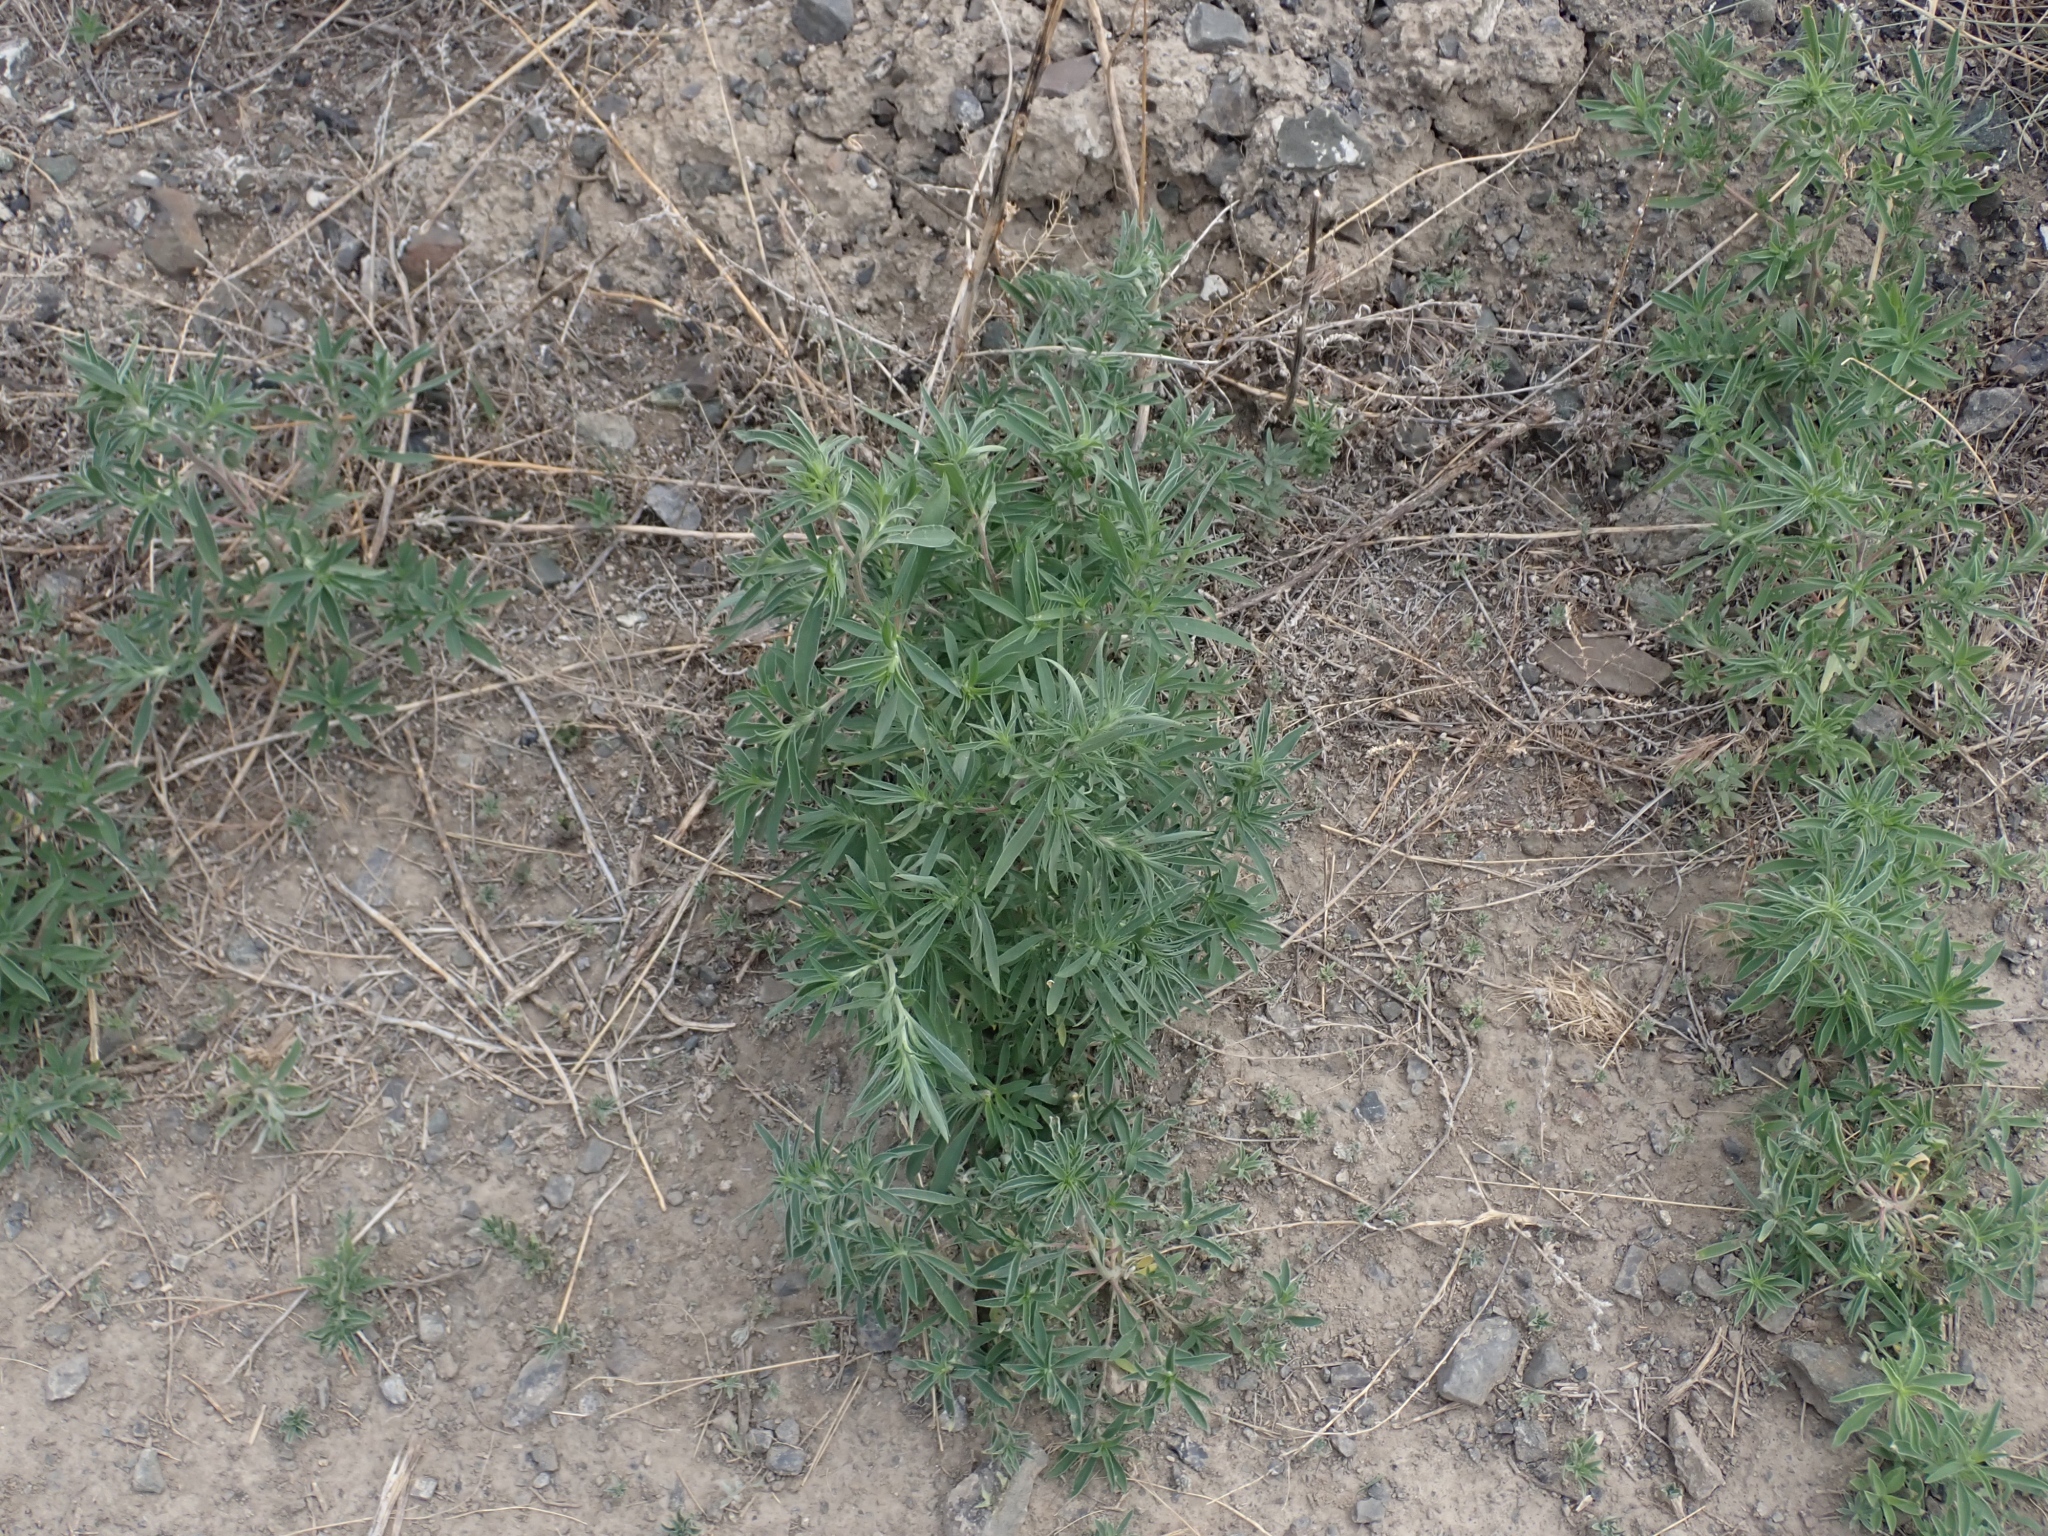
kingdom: Plantae
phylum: Tracheophyta
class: Magnoliopsida
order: Caryophyllales
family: Amaranthaceae
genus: Bassia
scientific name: Bassia scoparia
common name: Belvedere
